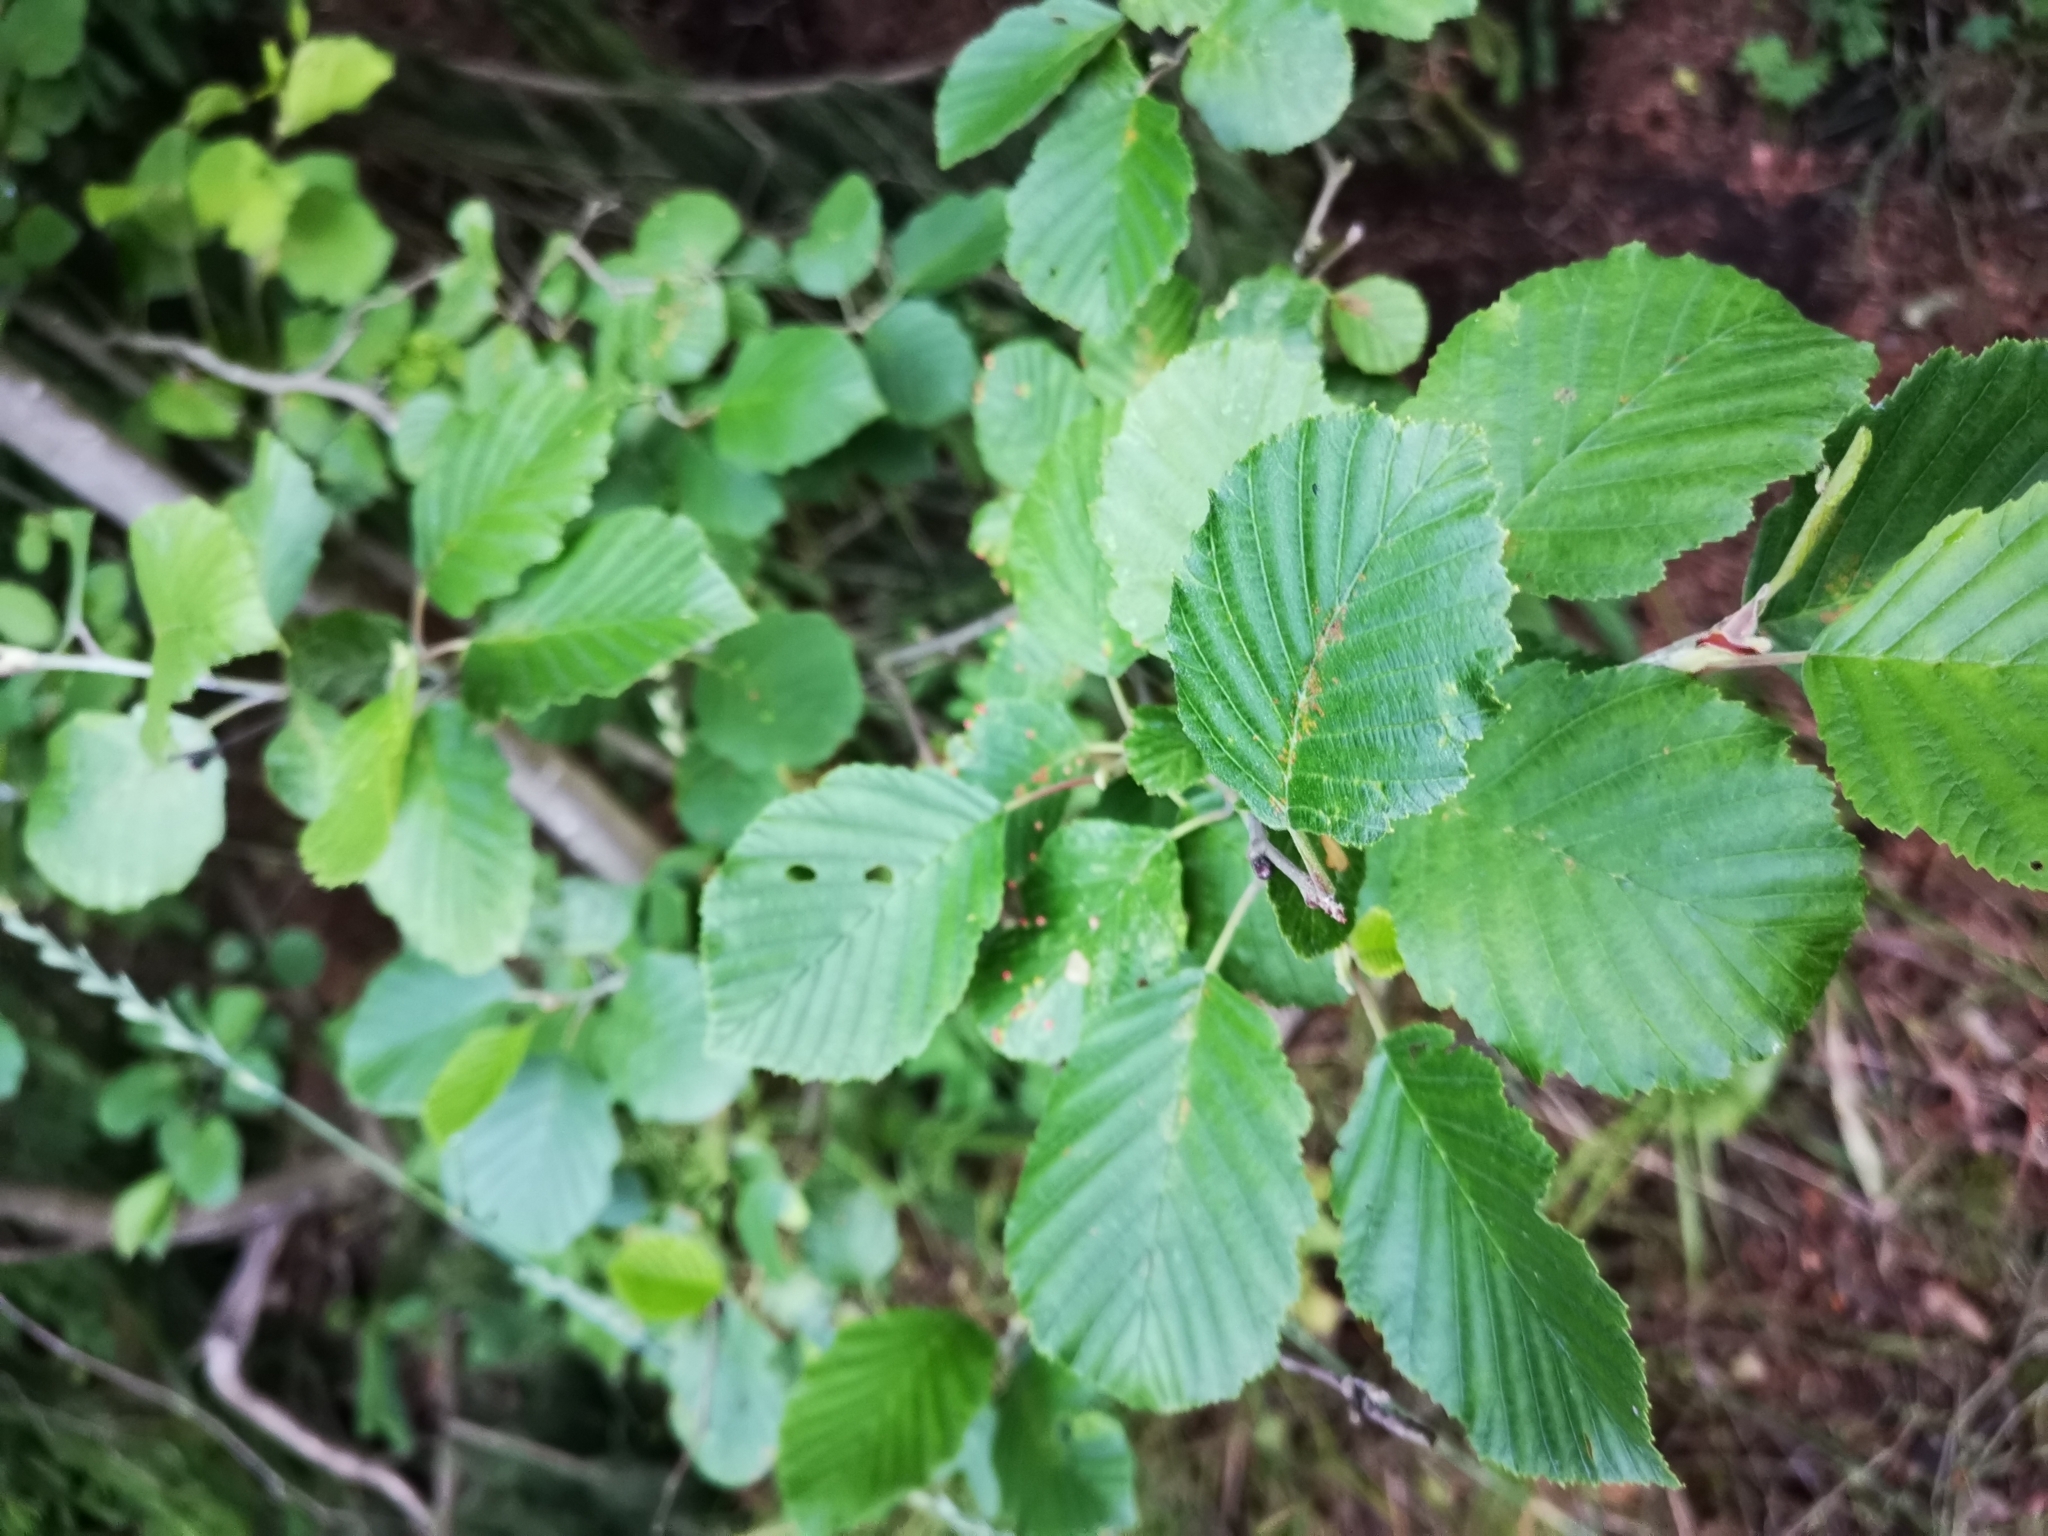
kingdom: Plantae
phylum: Tracheophyta
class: Magnoliopsida
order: Fagales
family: Betulaceae
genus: Alnus
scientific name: Alnus incana
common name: Grey alder
